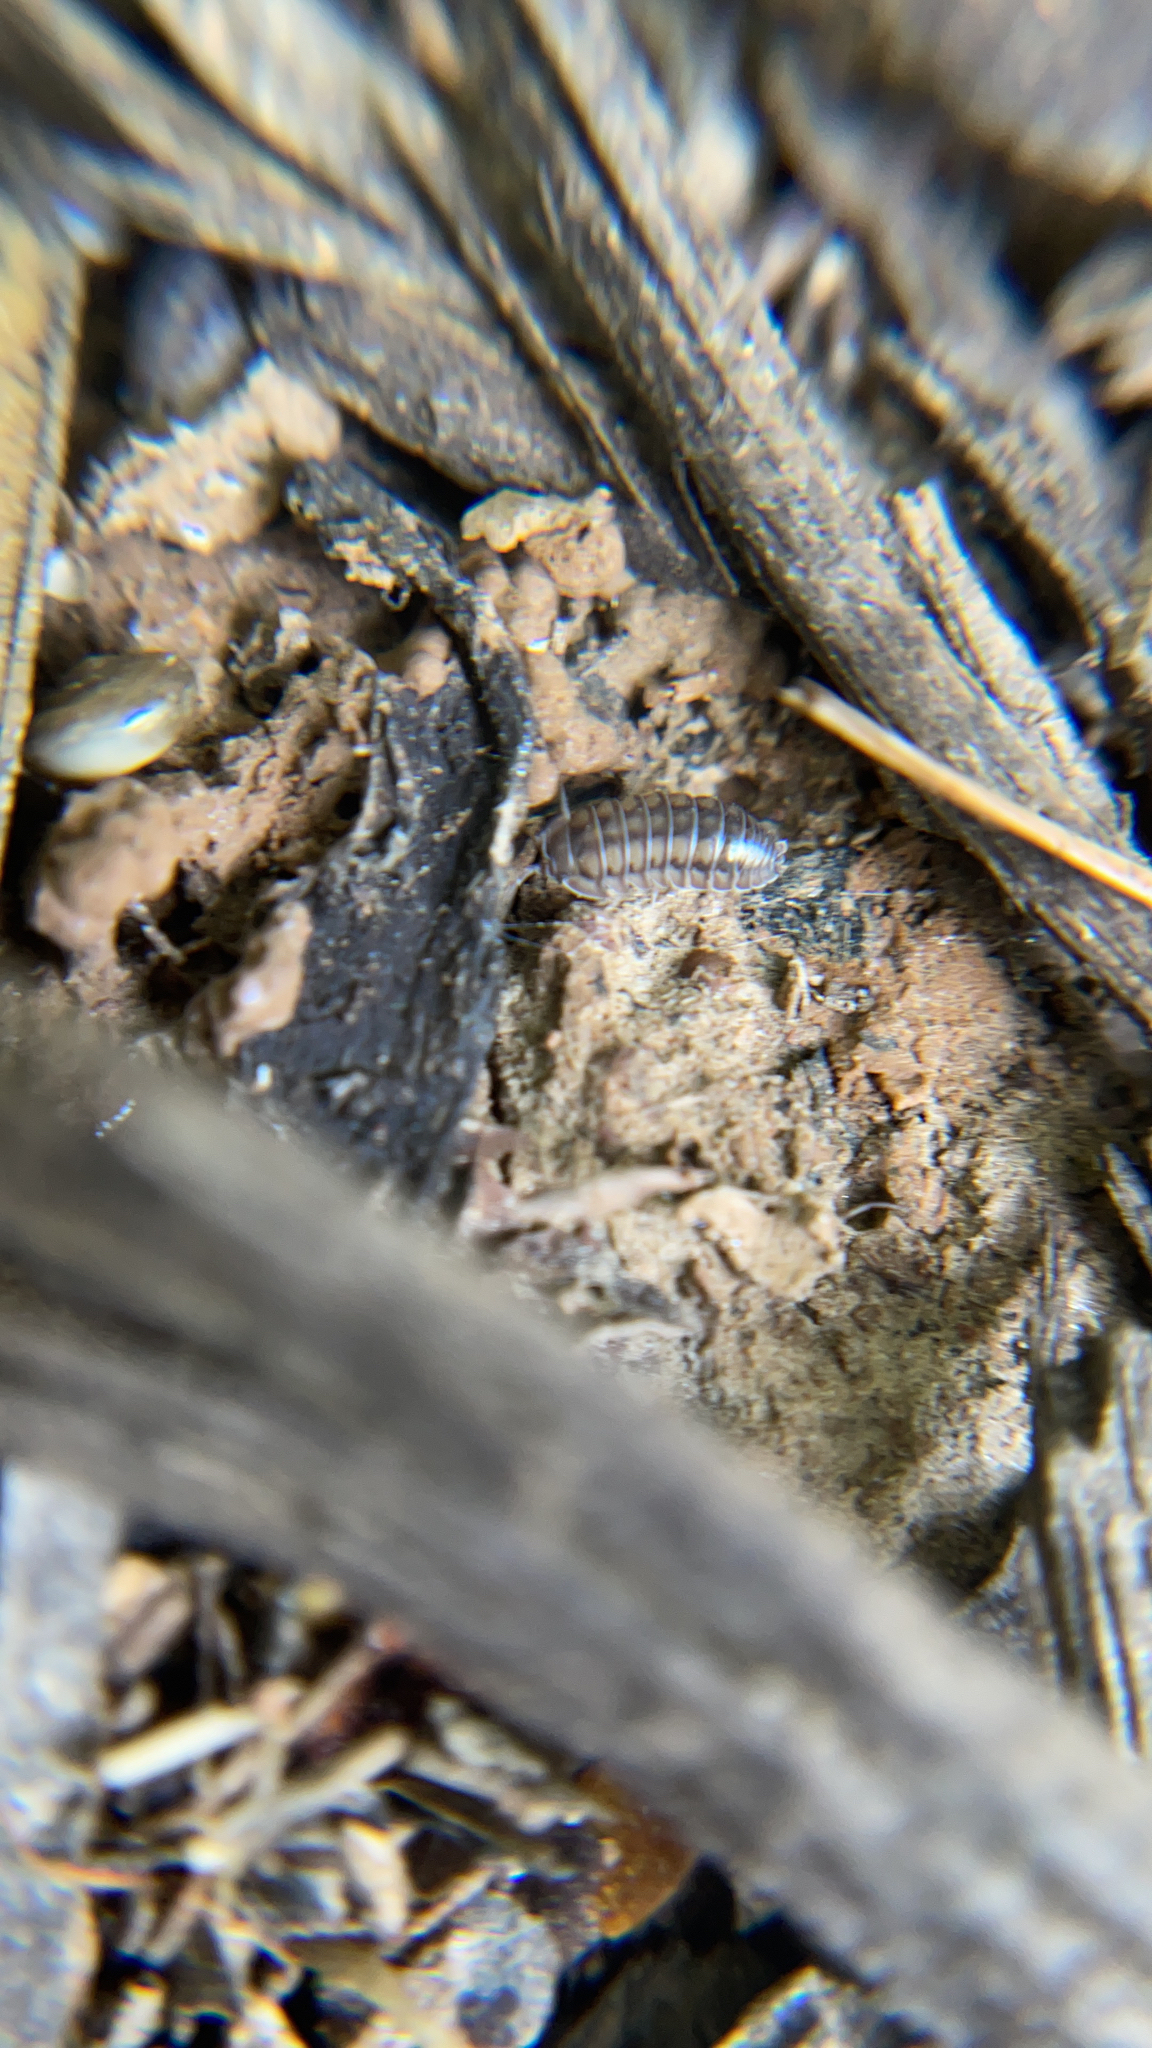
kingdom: Animalia
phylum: Arthropoda
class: Malacostraca
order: Isopoda
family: Armadillidiidae
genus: Armadillidium
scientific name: Armadillidium nasatum
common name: Isopod
